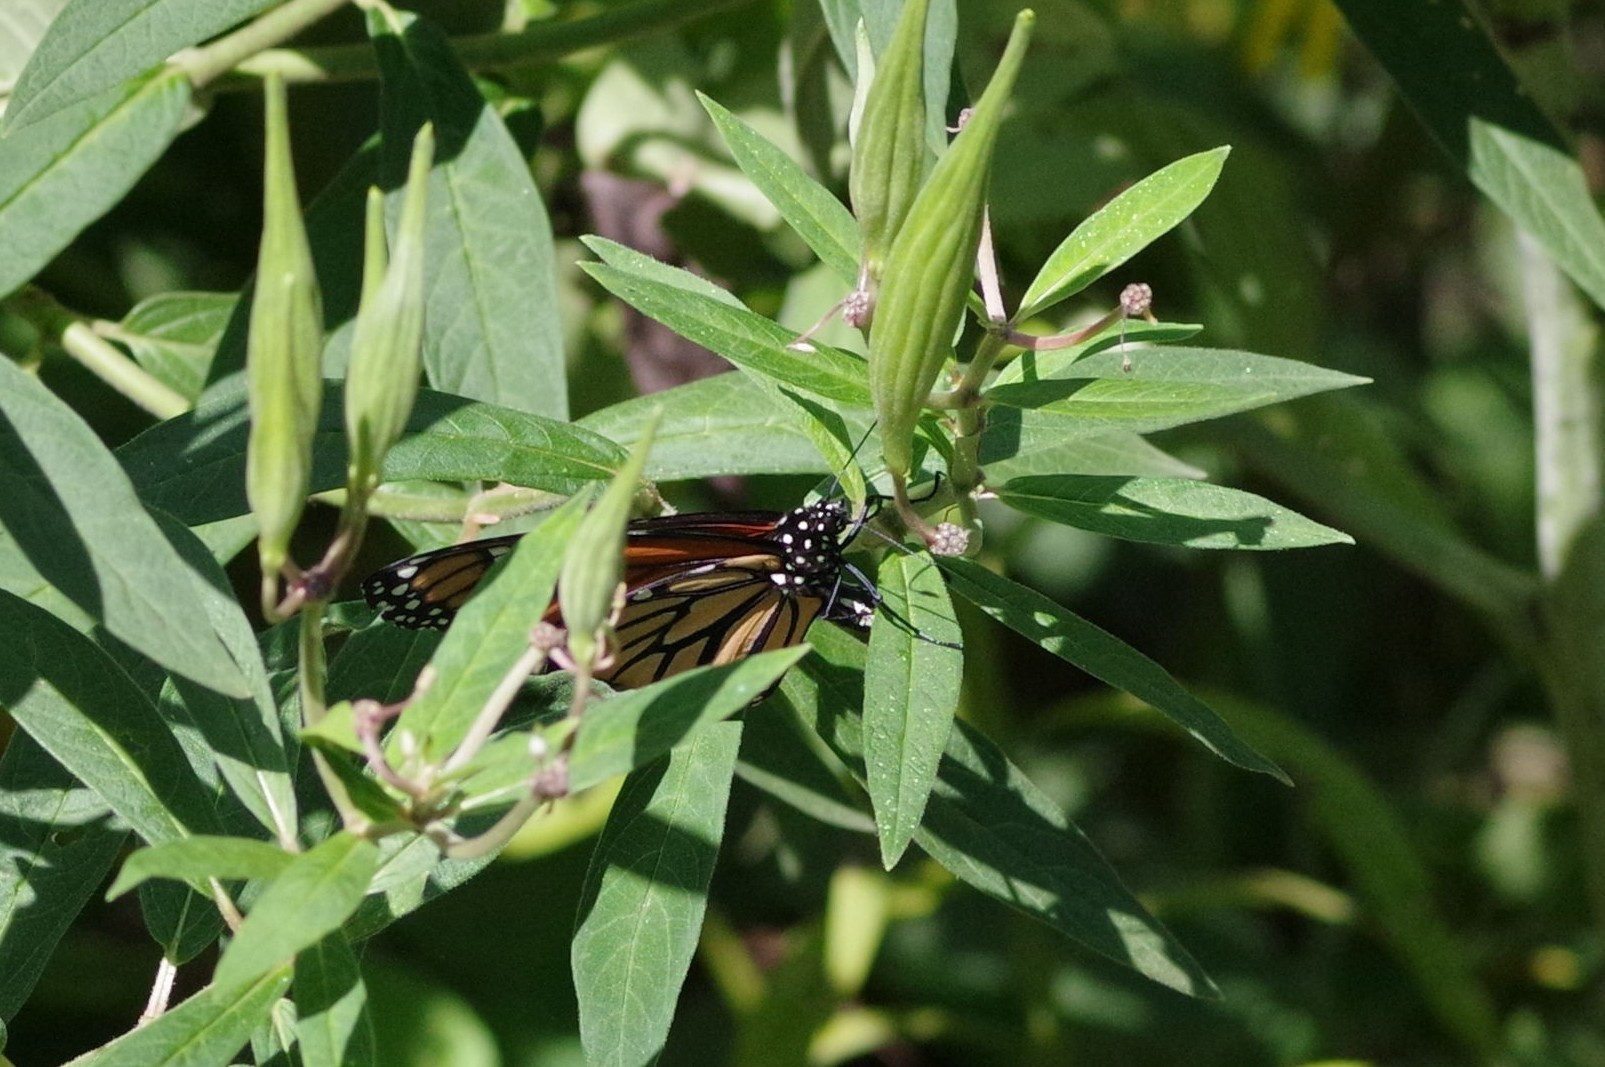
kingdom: Animalia
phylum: Arthropoda
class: Insecta
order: Lepidoptera
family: Nymphalidae
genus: Danaus
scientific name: Danaus plexippus
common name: Monarch
